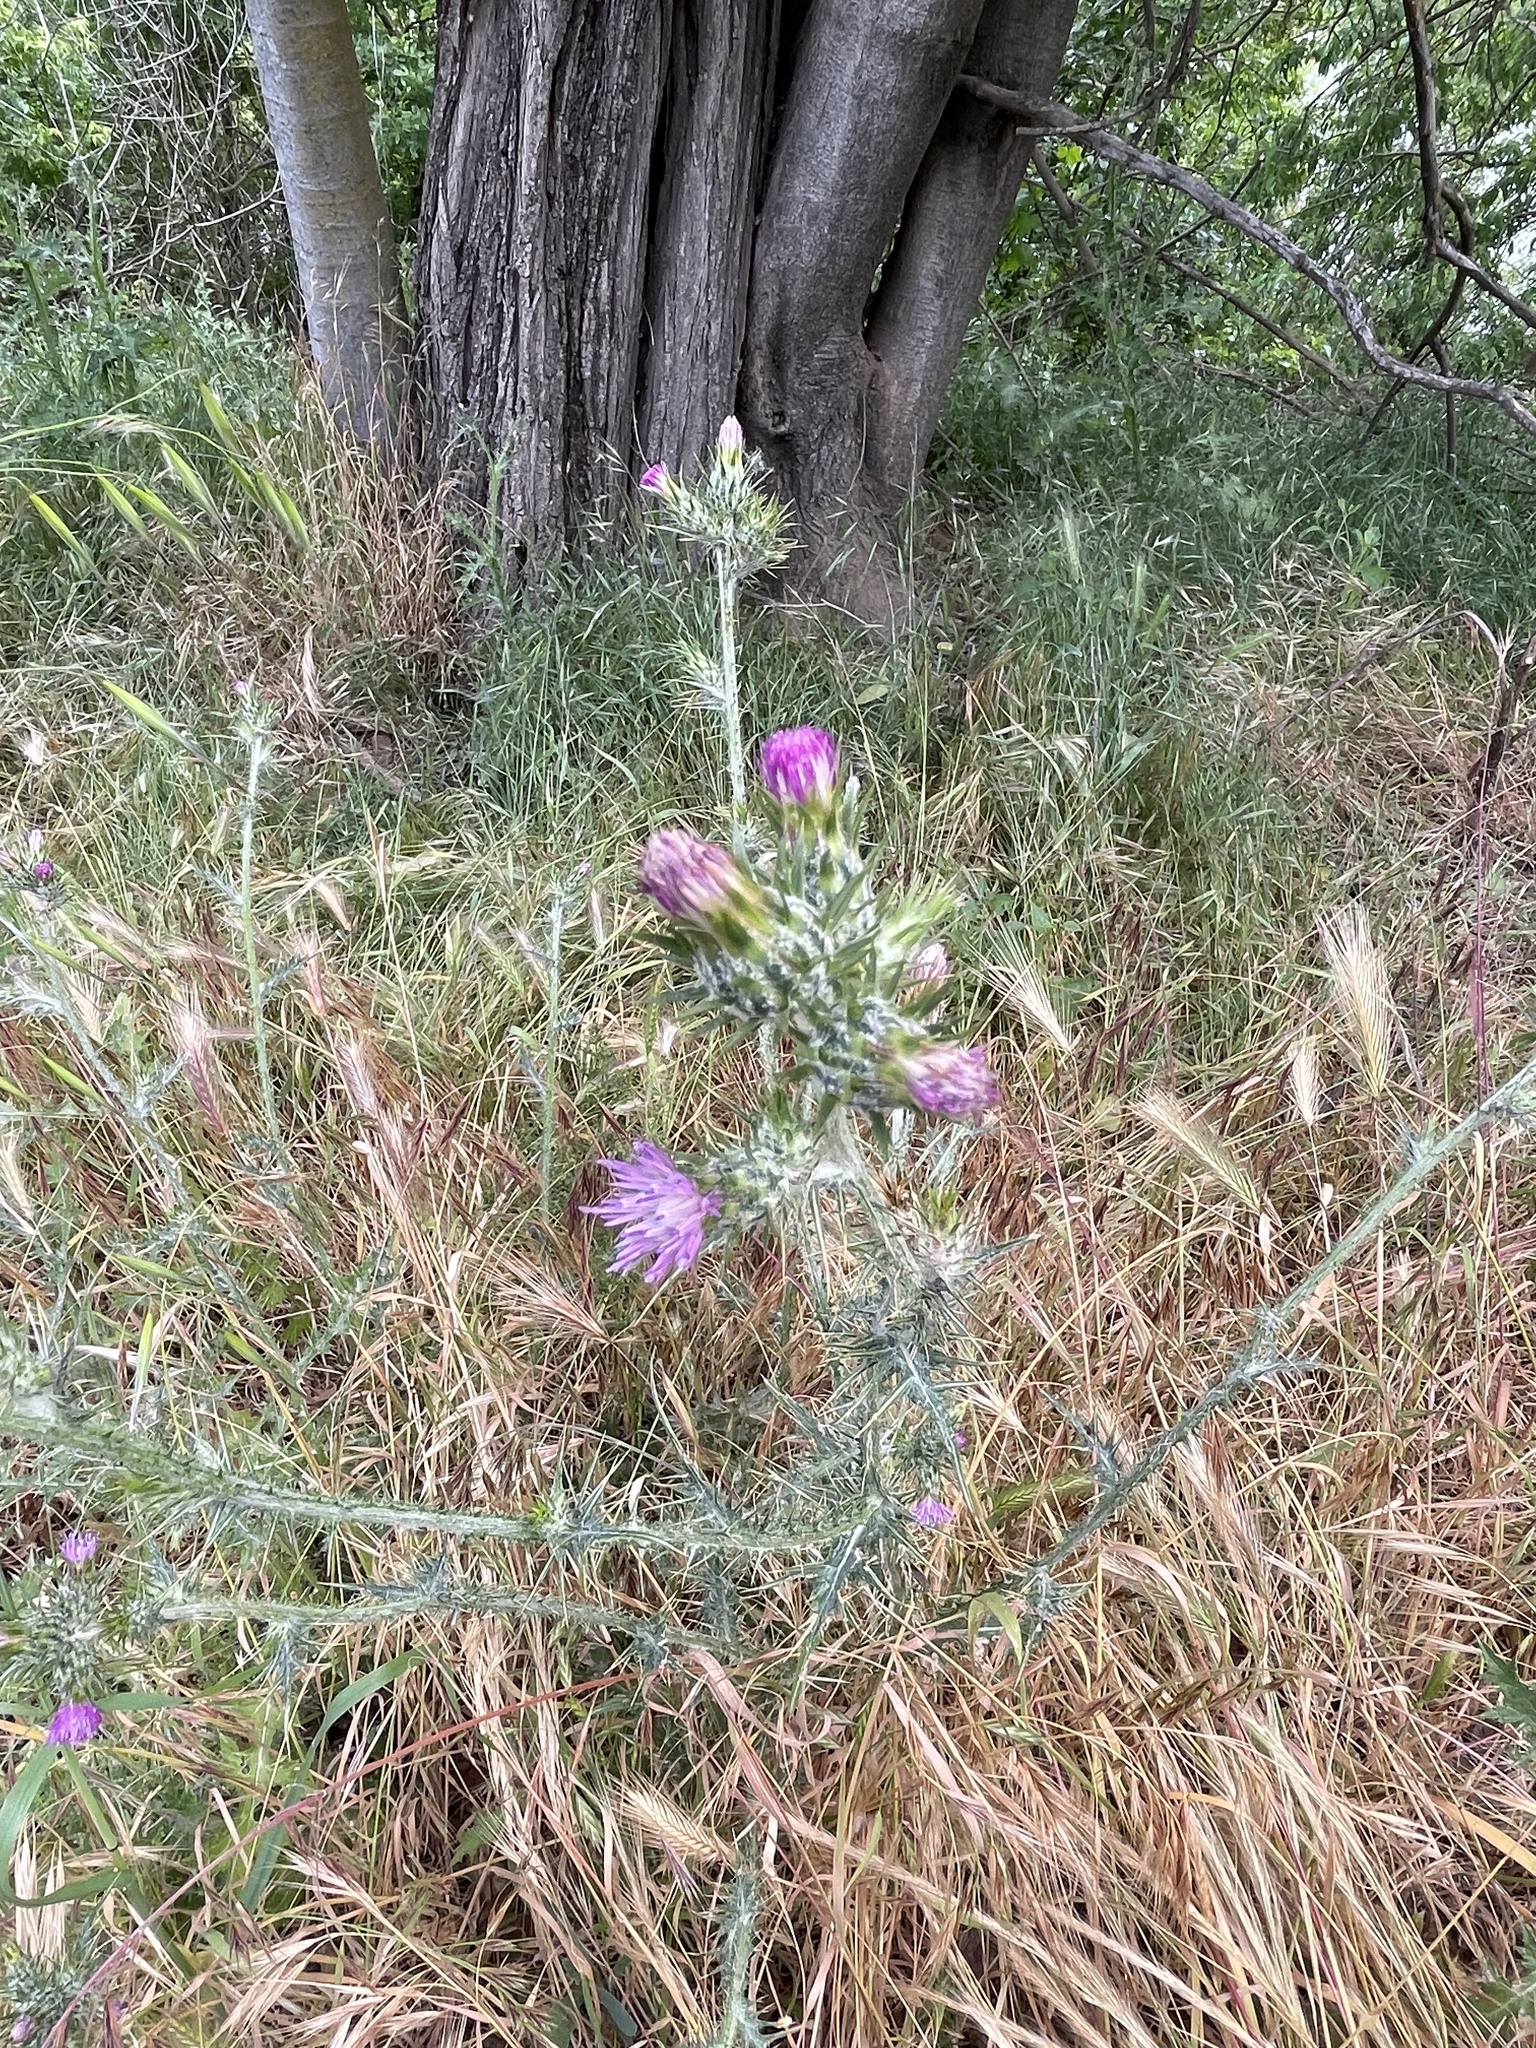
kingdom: Plantae
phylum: Tracheophyta
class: Magnoliopsida
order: Asterales
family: Asteraceae
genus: Carduus
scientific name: Carduus pycnocephalus
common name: Plymouth thistle
